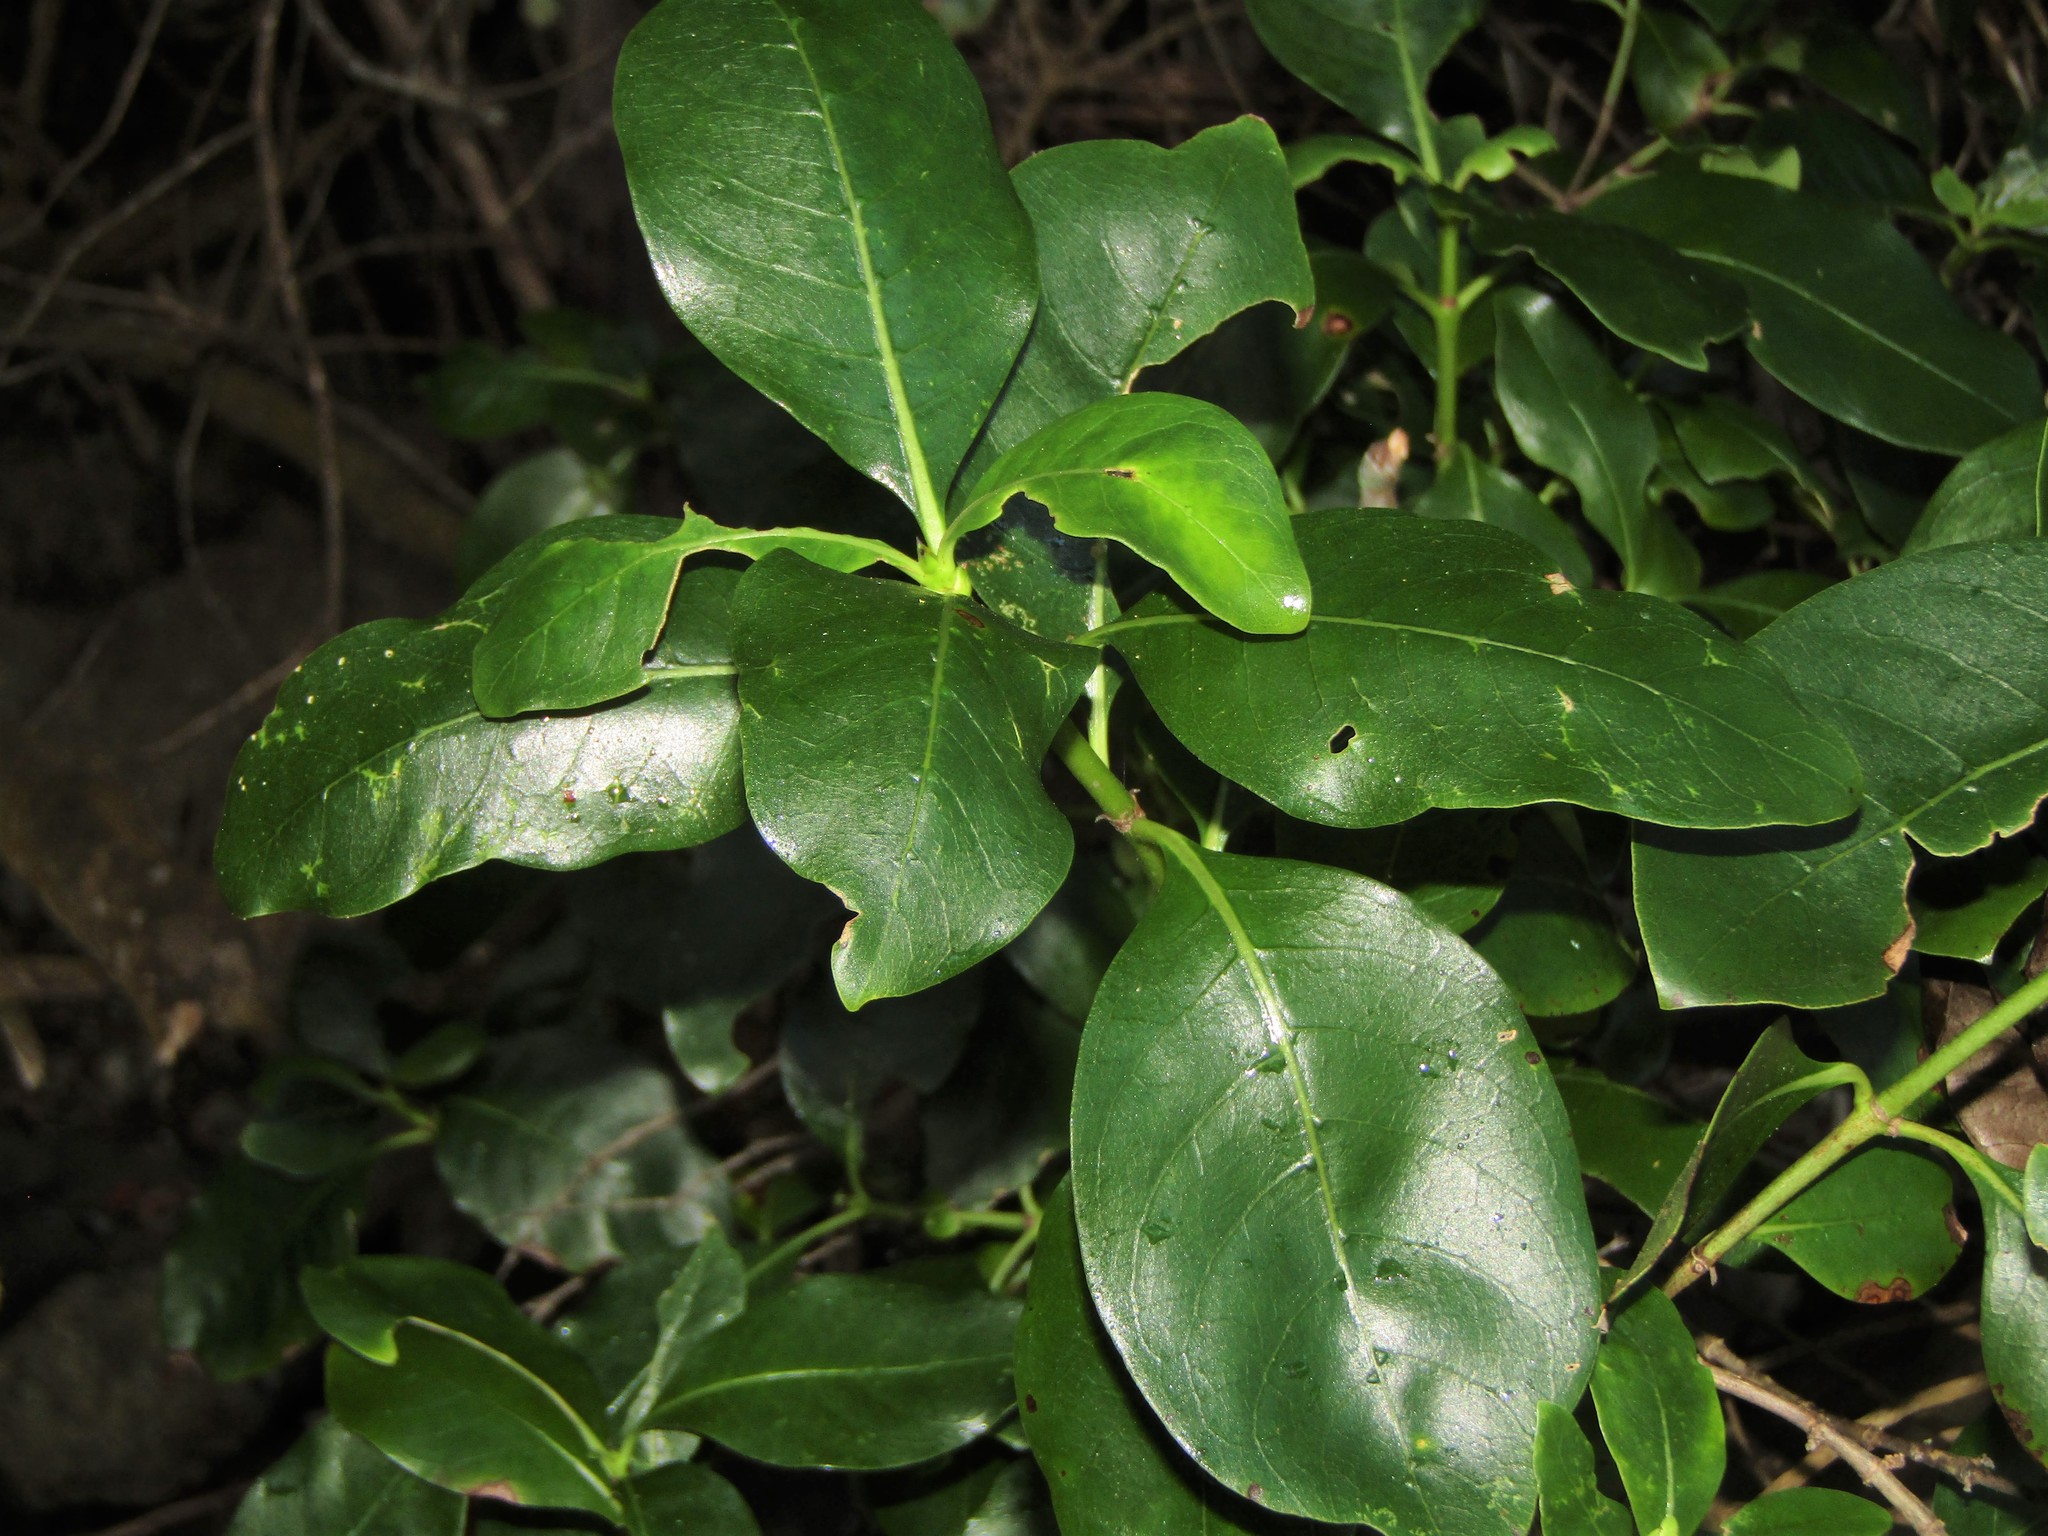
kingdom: Plantae
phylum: Tracheophyta
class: Magnoliopsida
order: Gentianales
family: Rubiaceae
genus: Coprosma
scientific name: Coprosma macrocarpa
